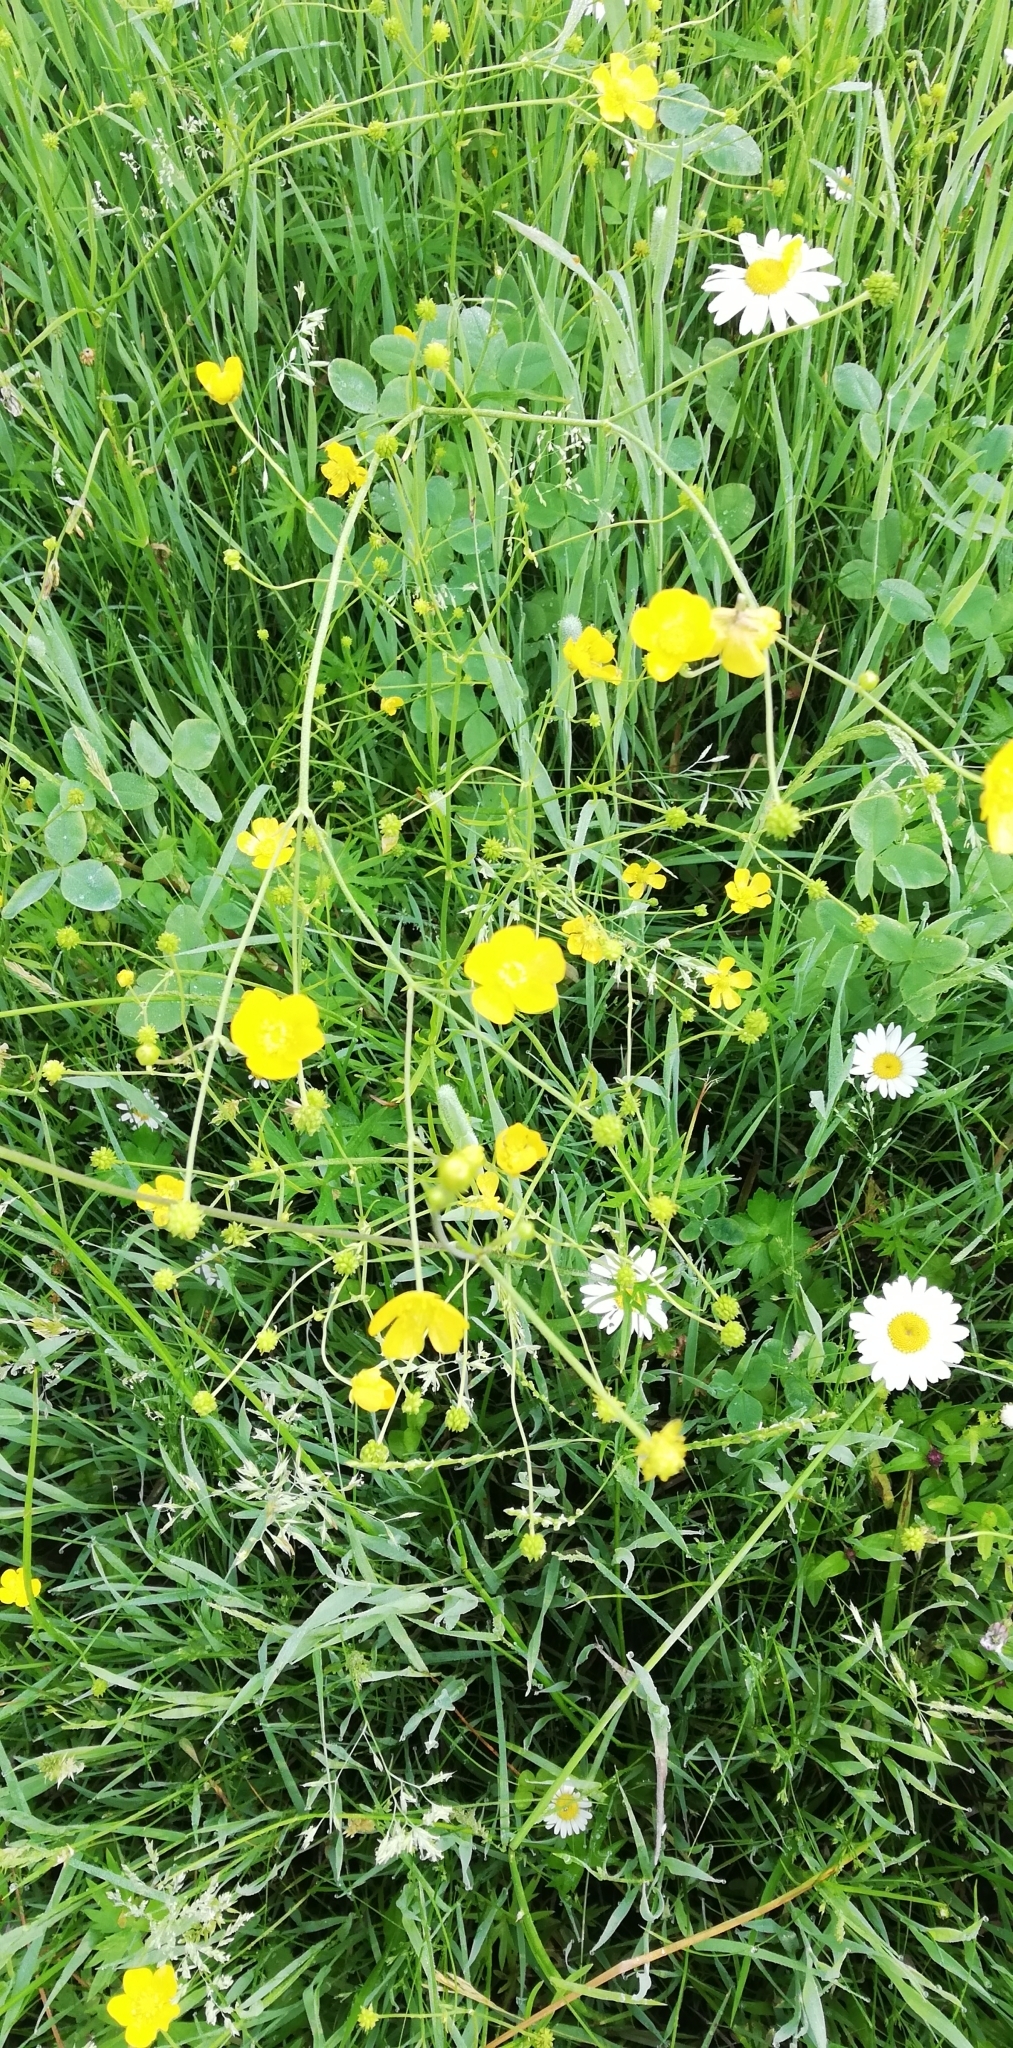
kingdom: Plantae
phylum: Tracheophyta
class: Magnoliopsida
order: Ranunculales
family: Ranunculaceae
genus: Ranunculus
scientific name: Ranunculus acris
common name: Meadow buttercup
